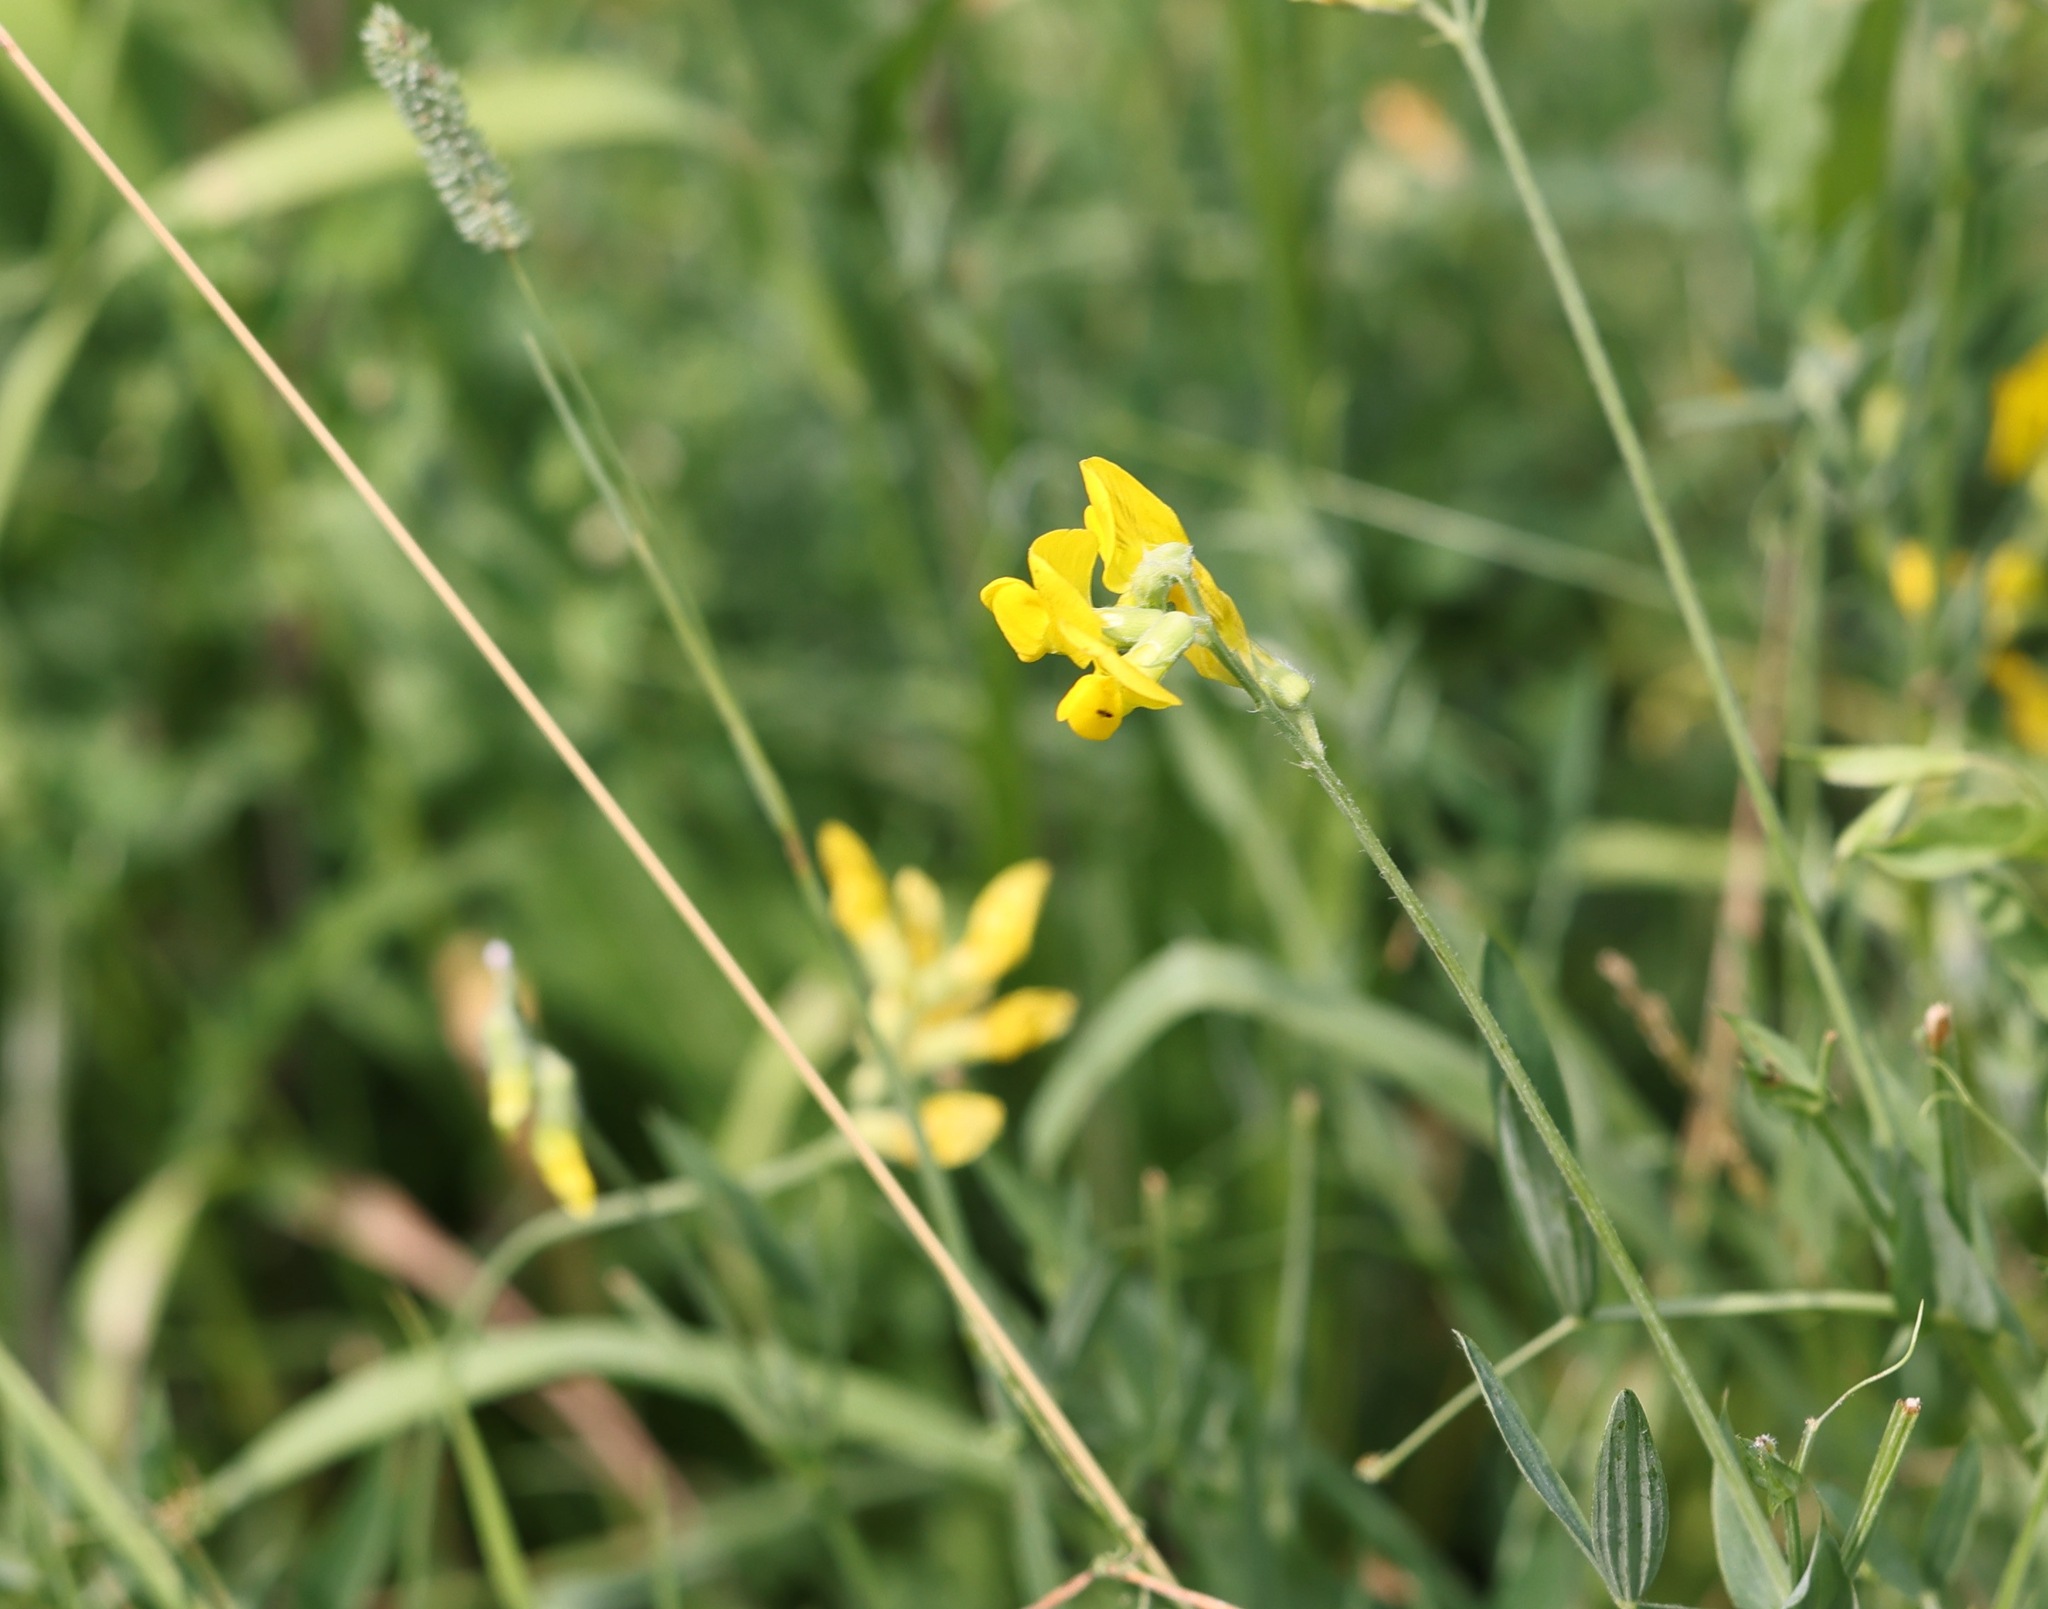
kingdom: Plantae
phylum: Tracheophyta
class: Magnoliopsida
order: Fabales
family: Fabaceae
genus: Lathyrus
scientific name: Lathyrus pratensis
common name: Meadow vetchling
